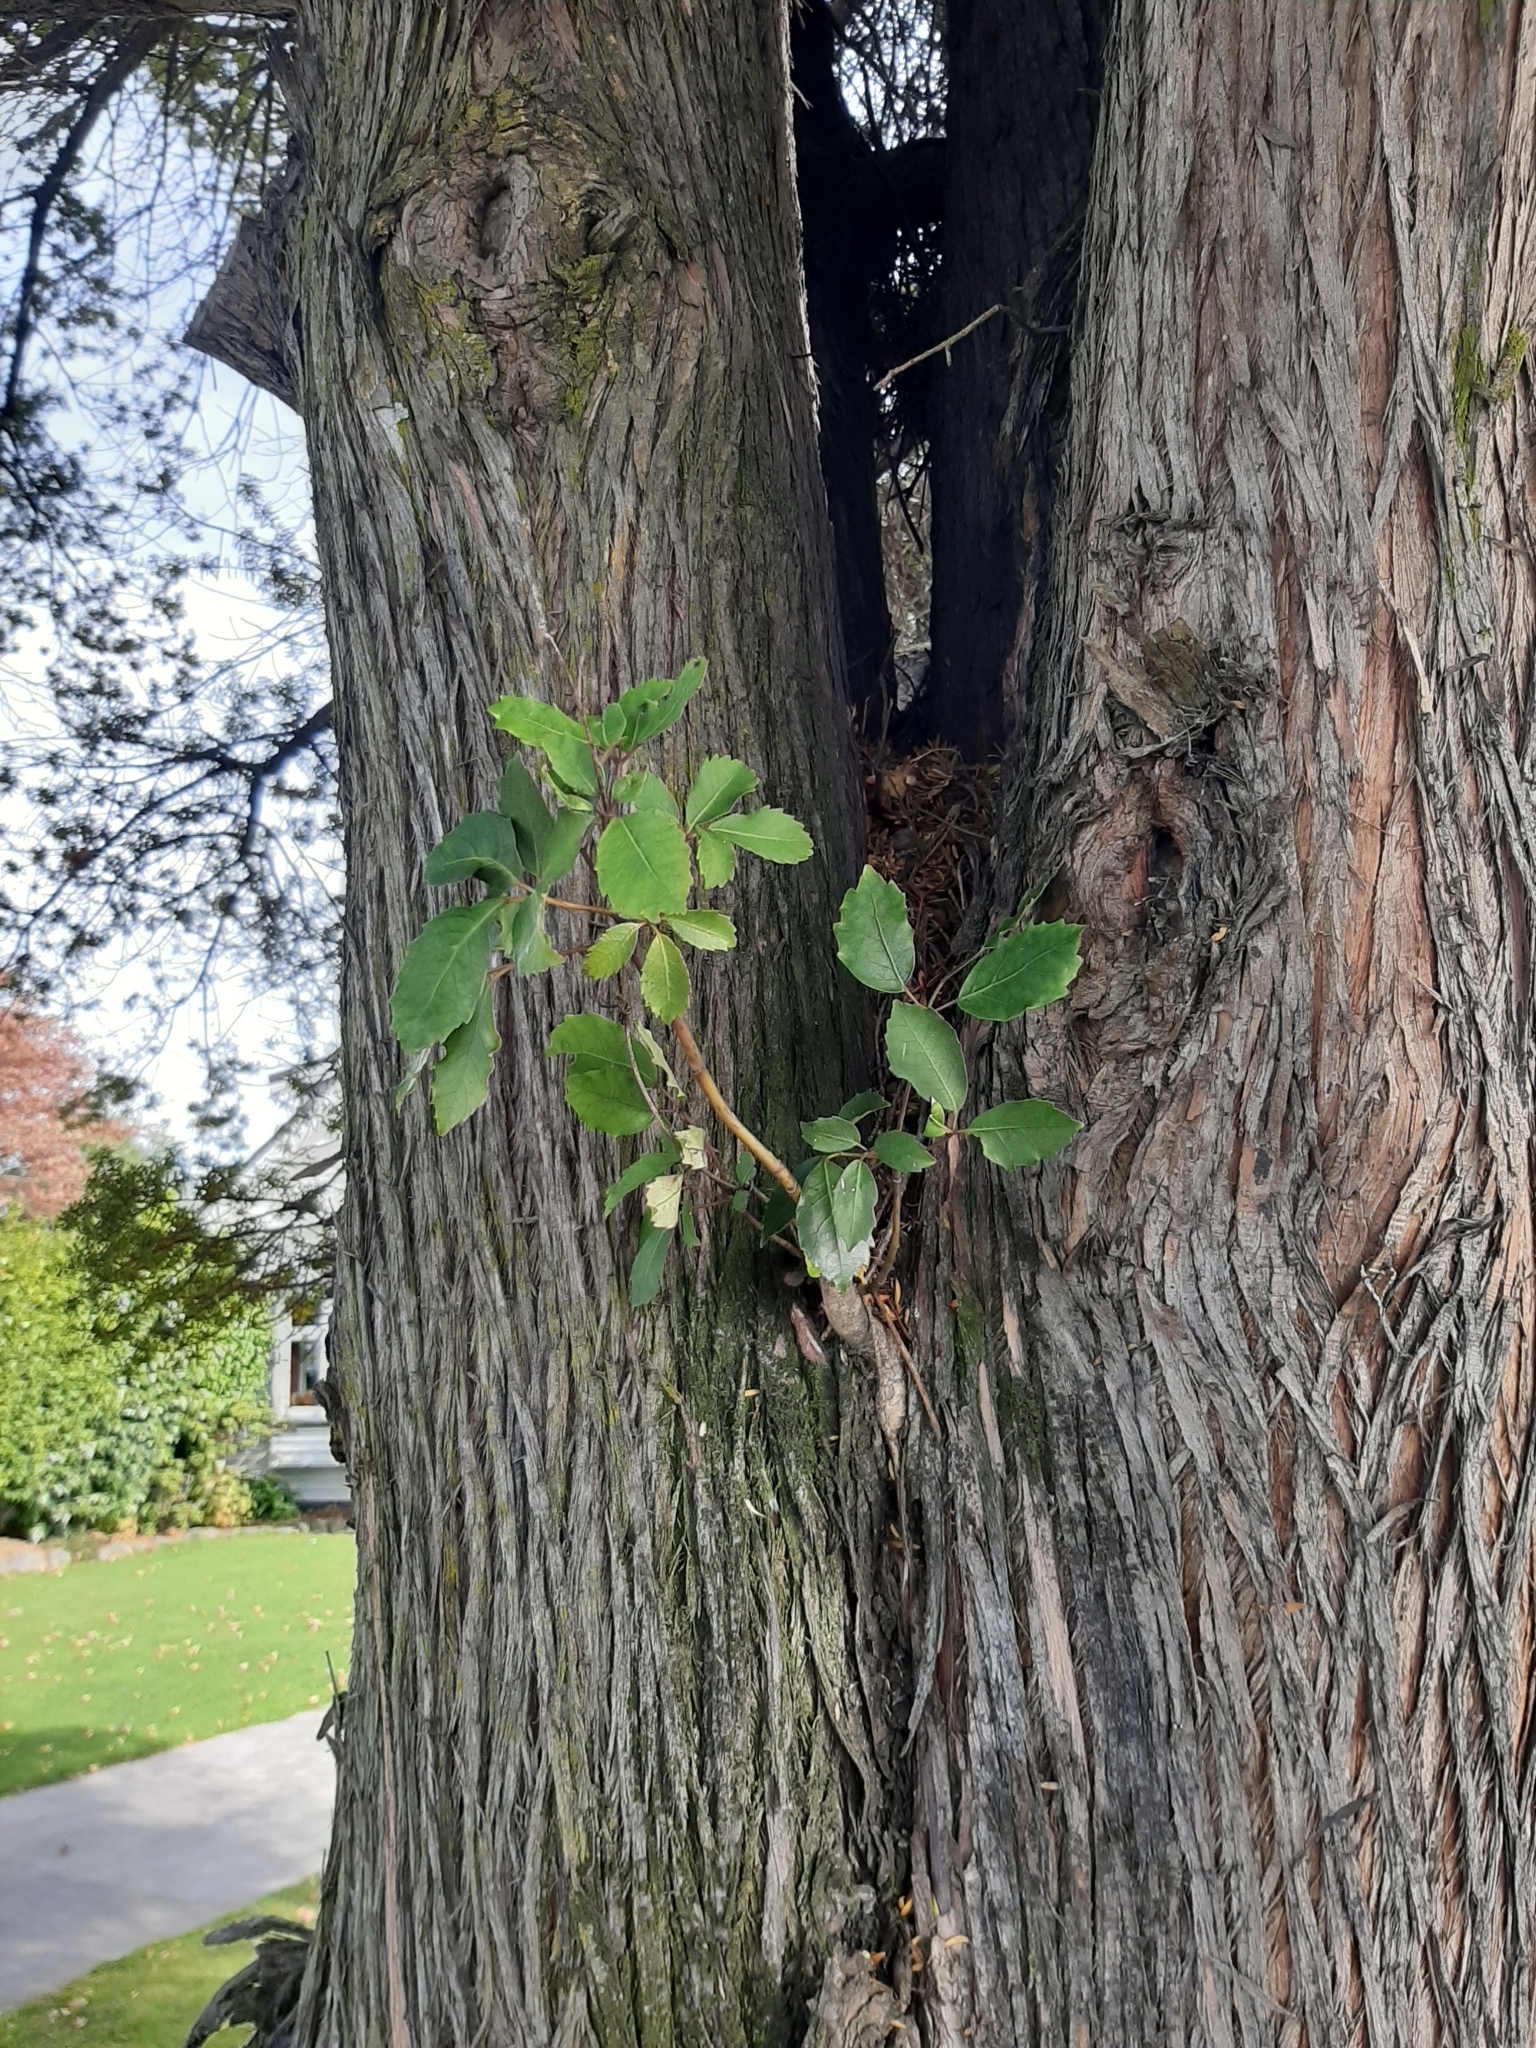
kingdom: Plantae
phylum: Tracheophyta
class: Magnoliopsida
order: Apiales
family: Araliaceae
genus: Neopanax
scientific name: Neopanax arboreus
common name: Five-fingers
